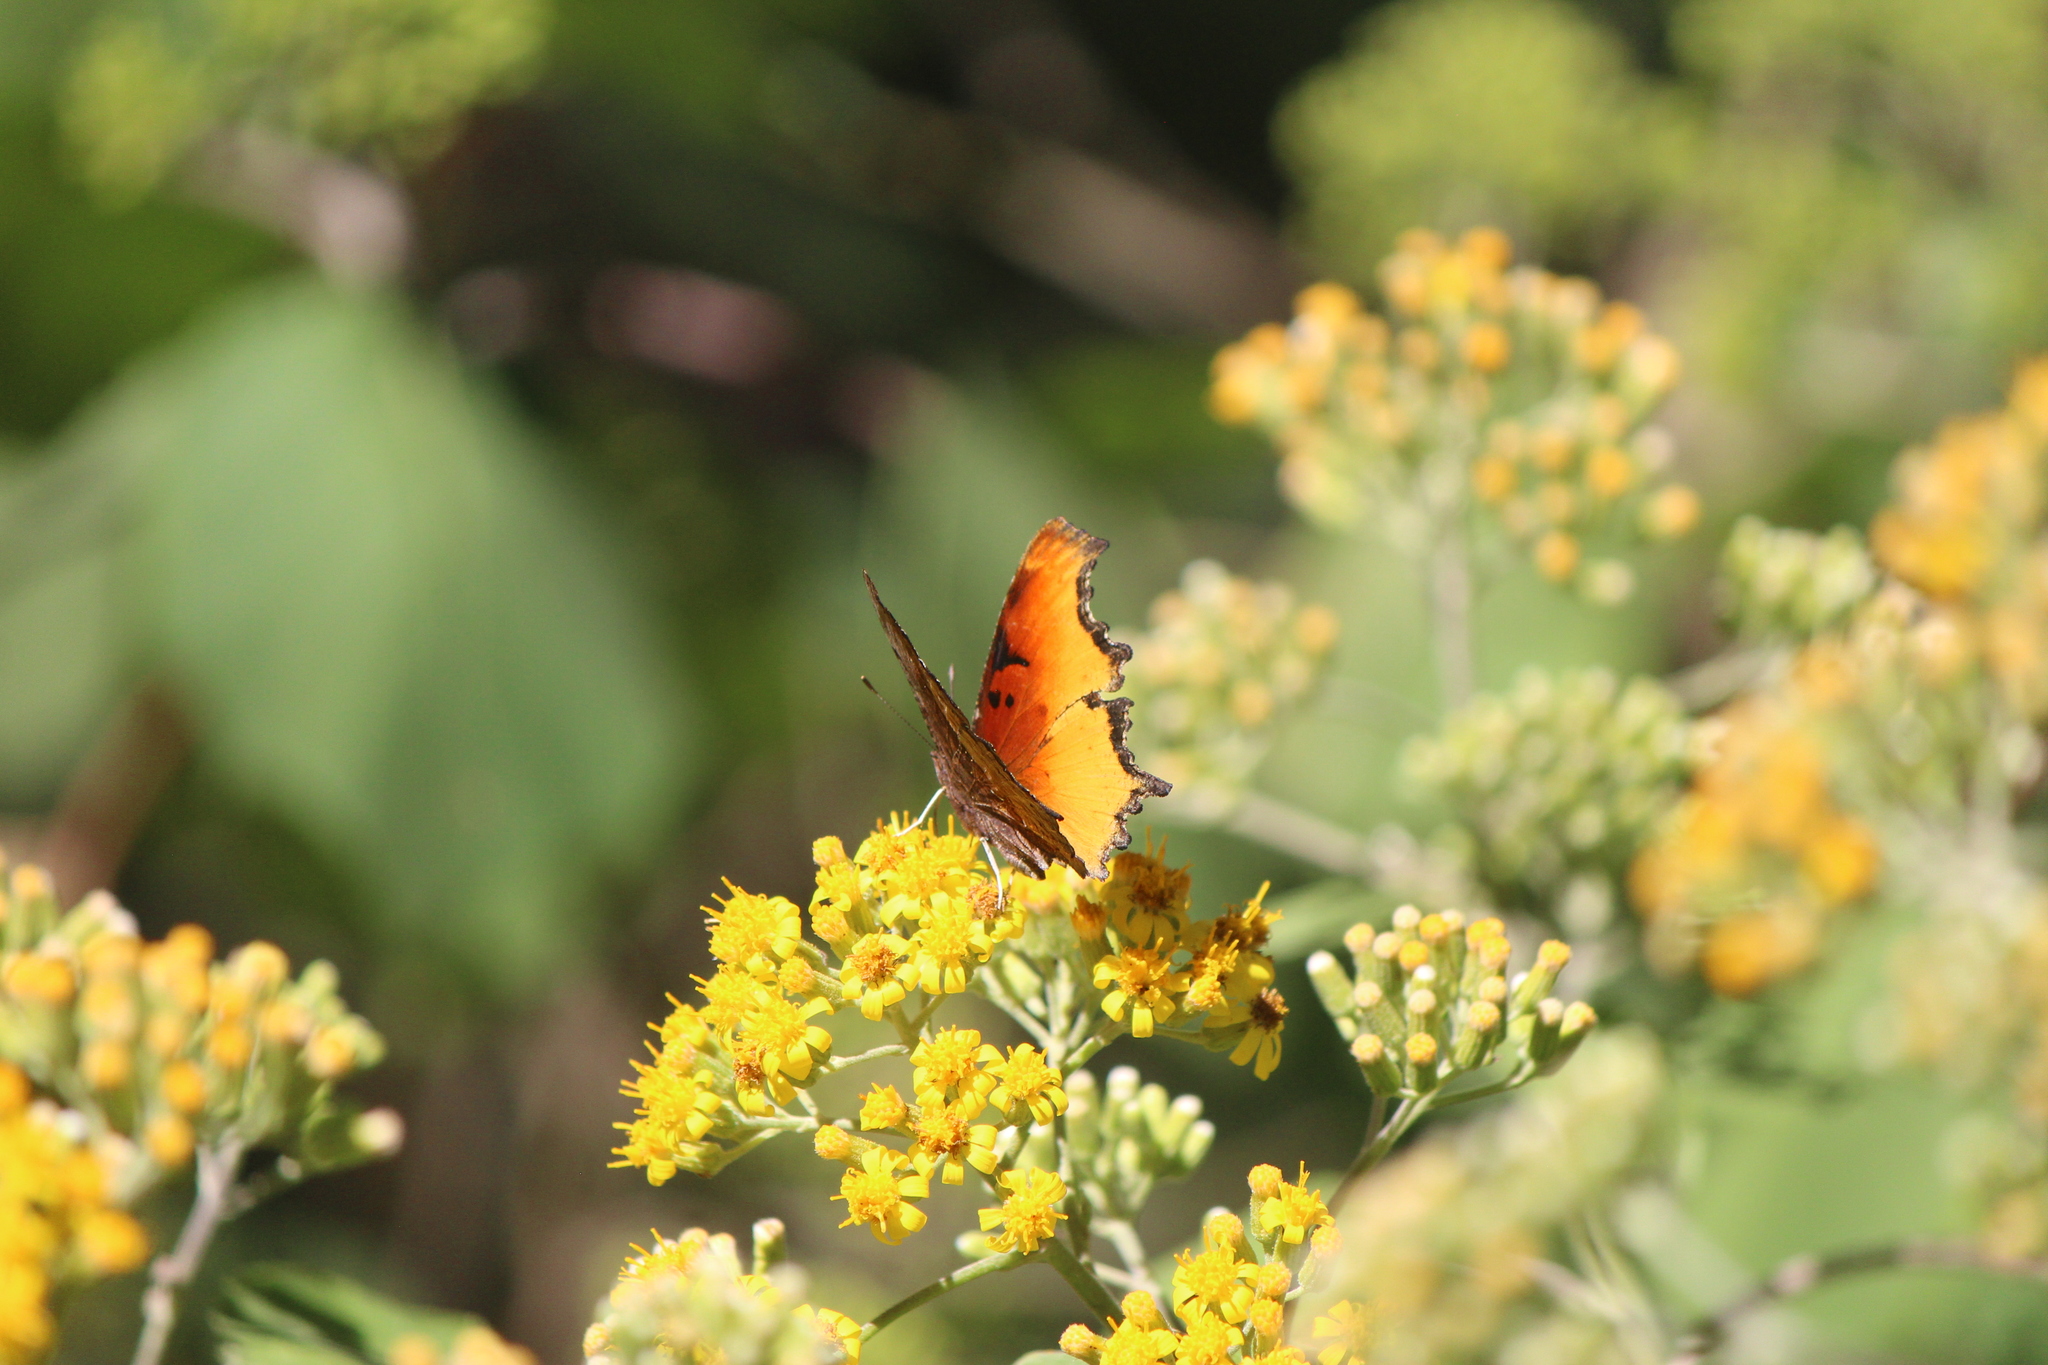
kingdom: Animalia
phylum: Arthropoda
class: Insecta
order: Lepidoptera
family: Nymphalidae
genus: Polygonia
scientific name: Polygonia haroldi
